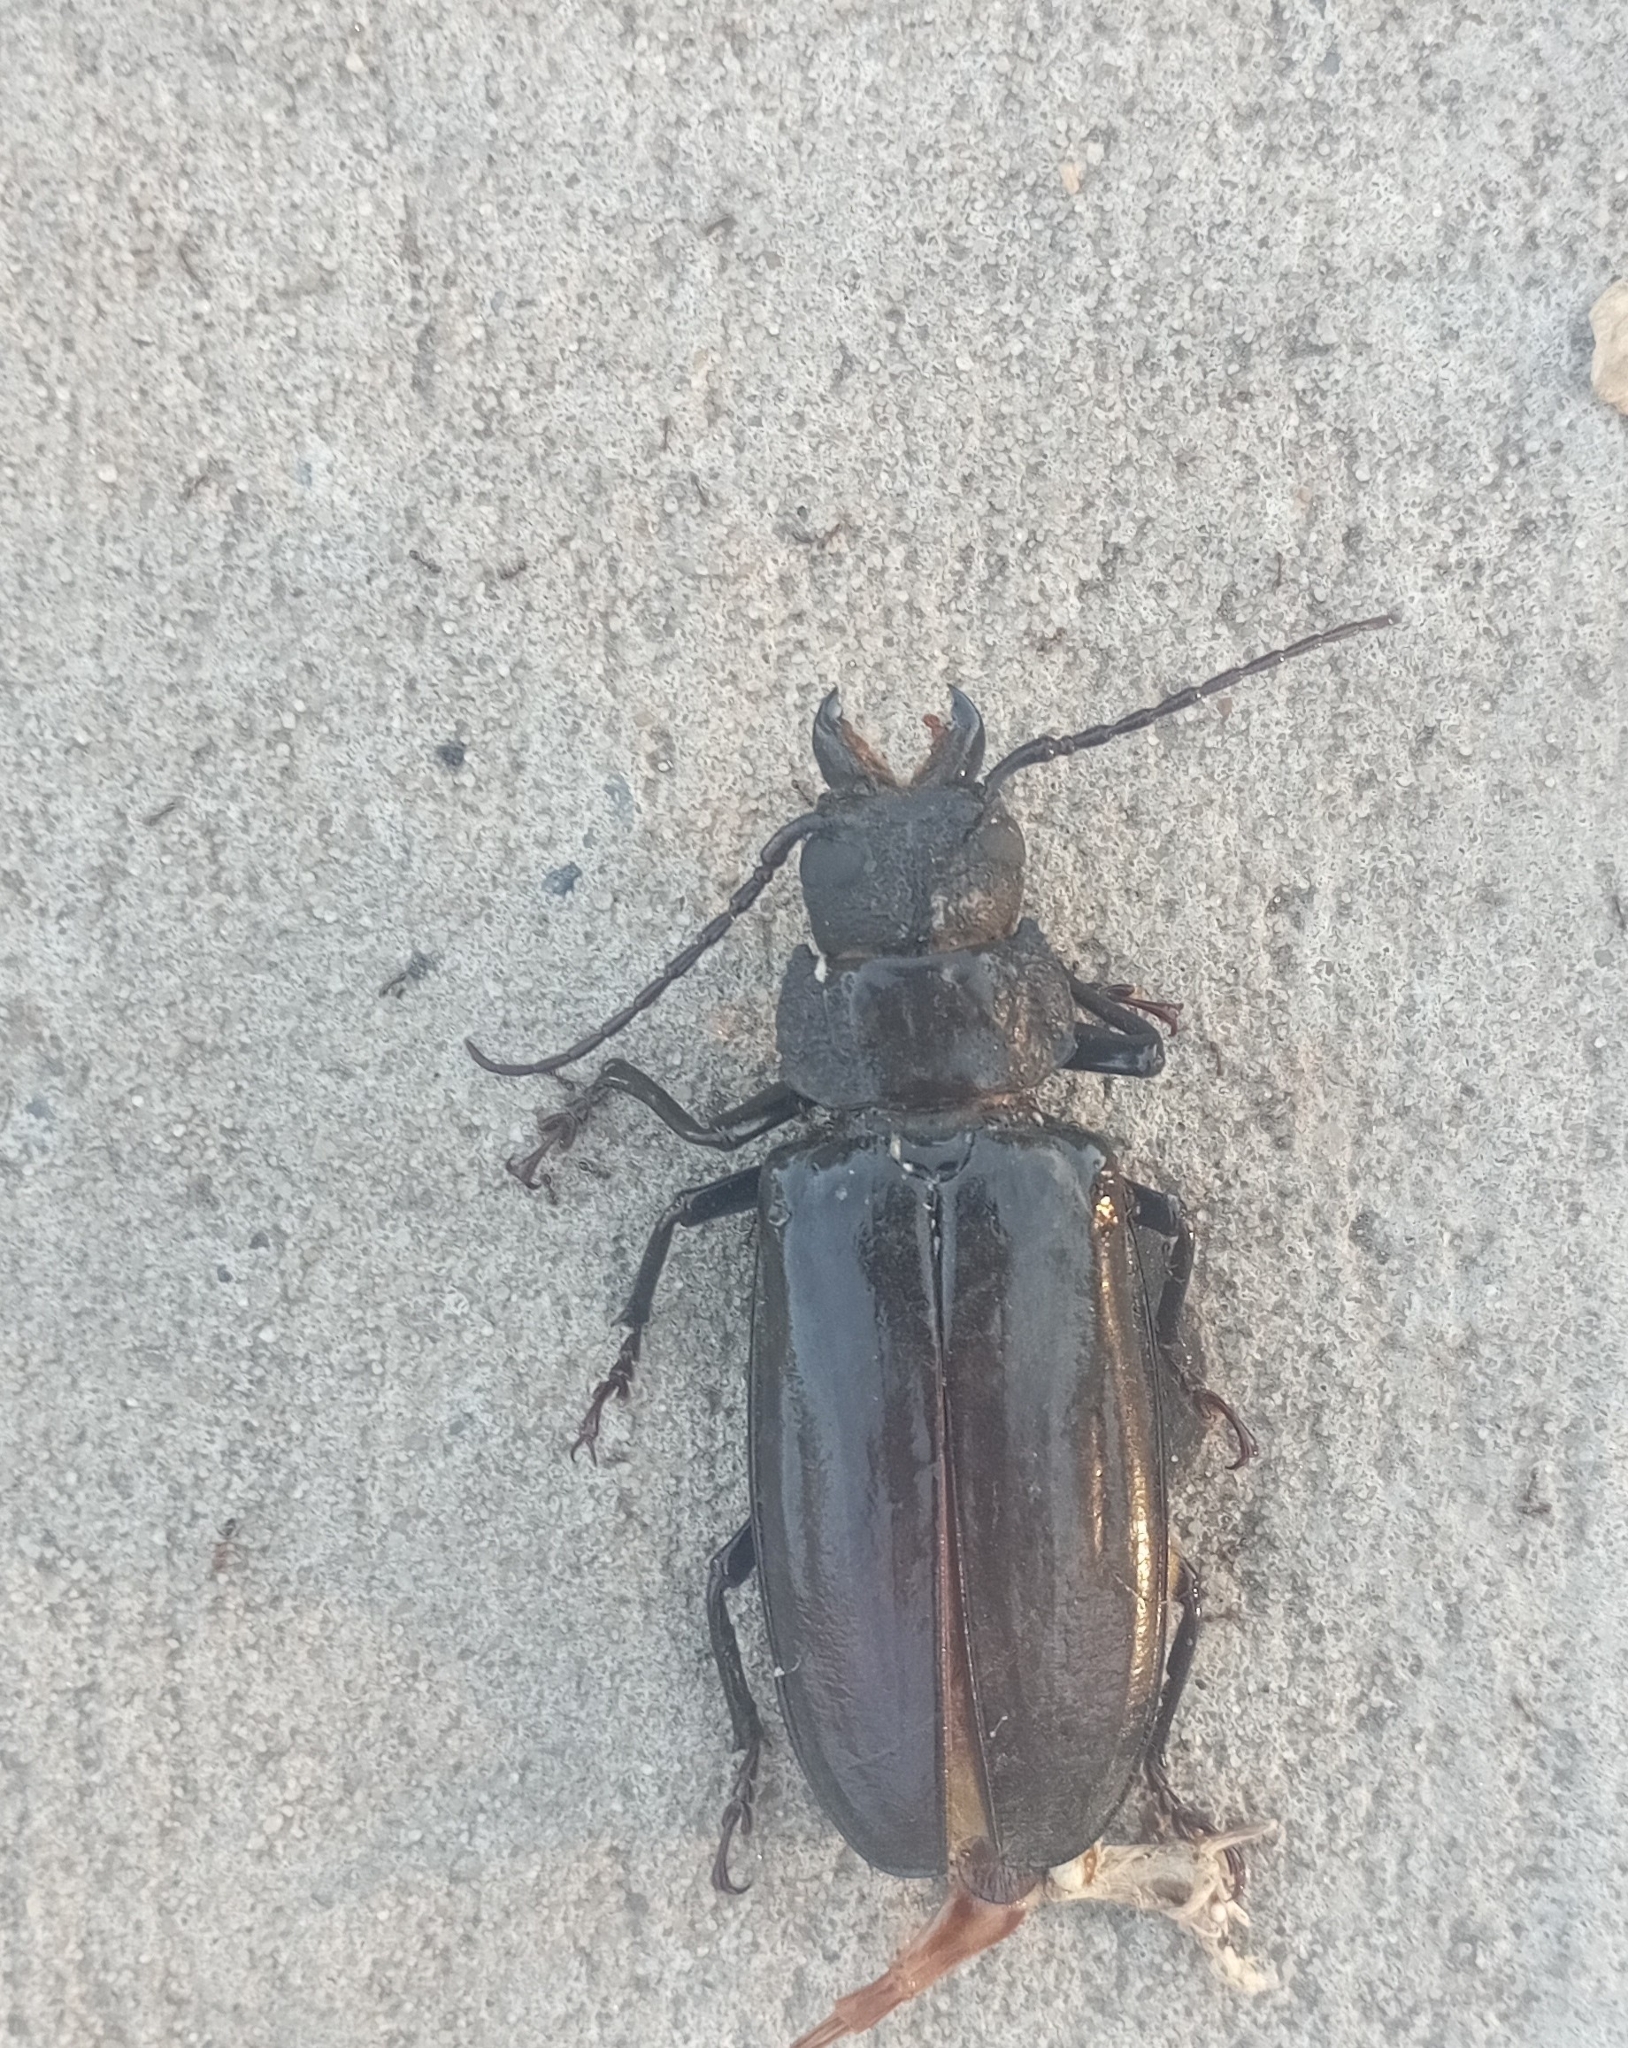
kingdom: Animalia
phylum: Arthropoda
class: Insecta
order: Coleoptera
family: Cerambycidae
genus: Mallodon
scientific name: Mallodon dasystomum
